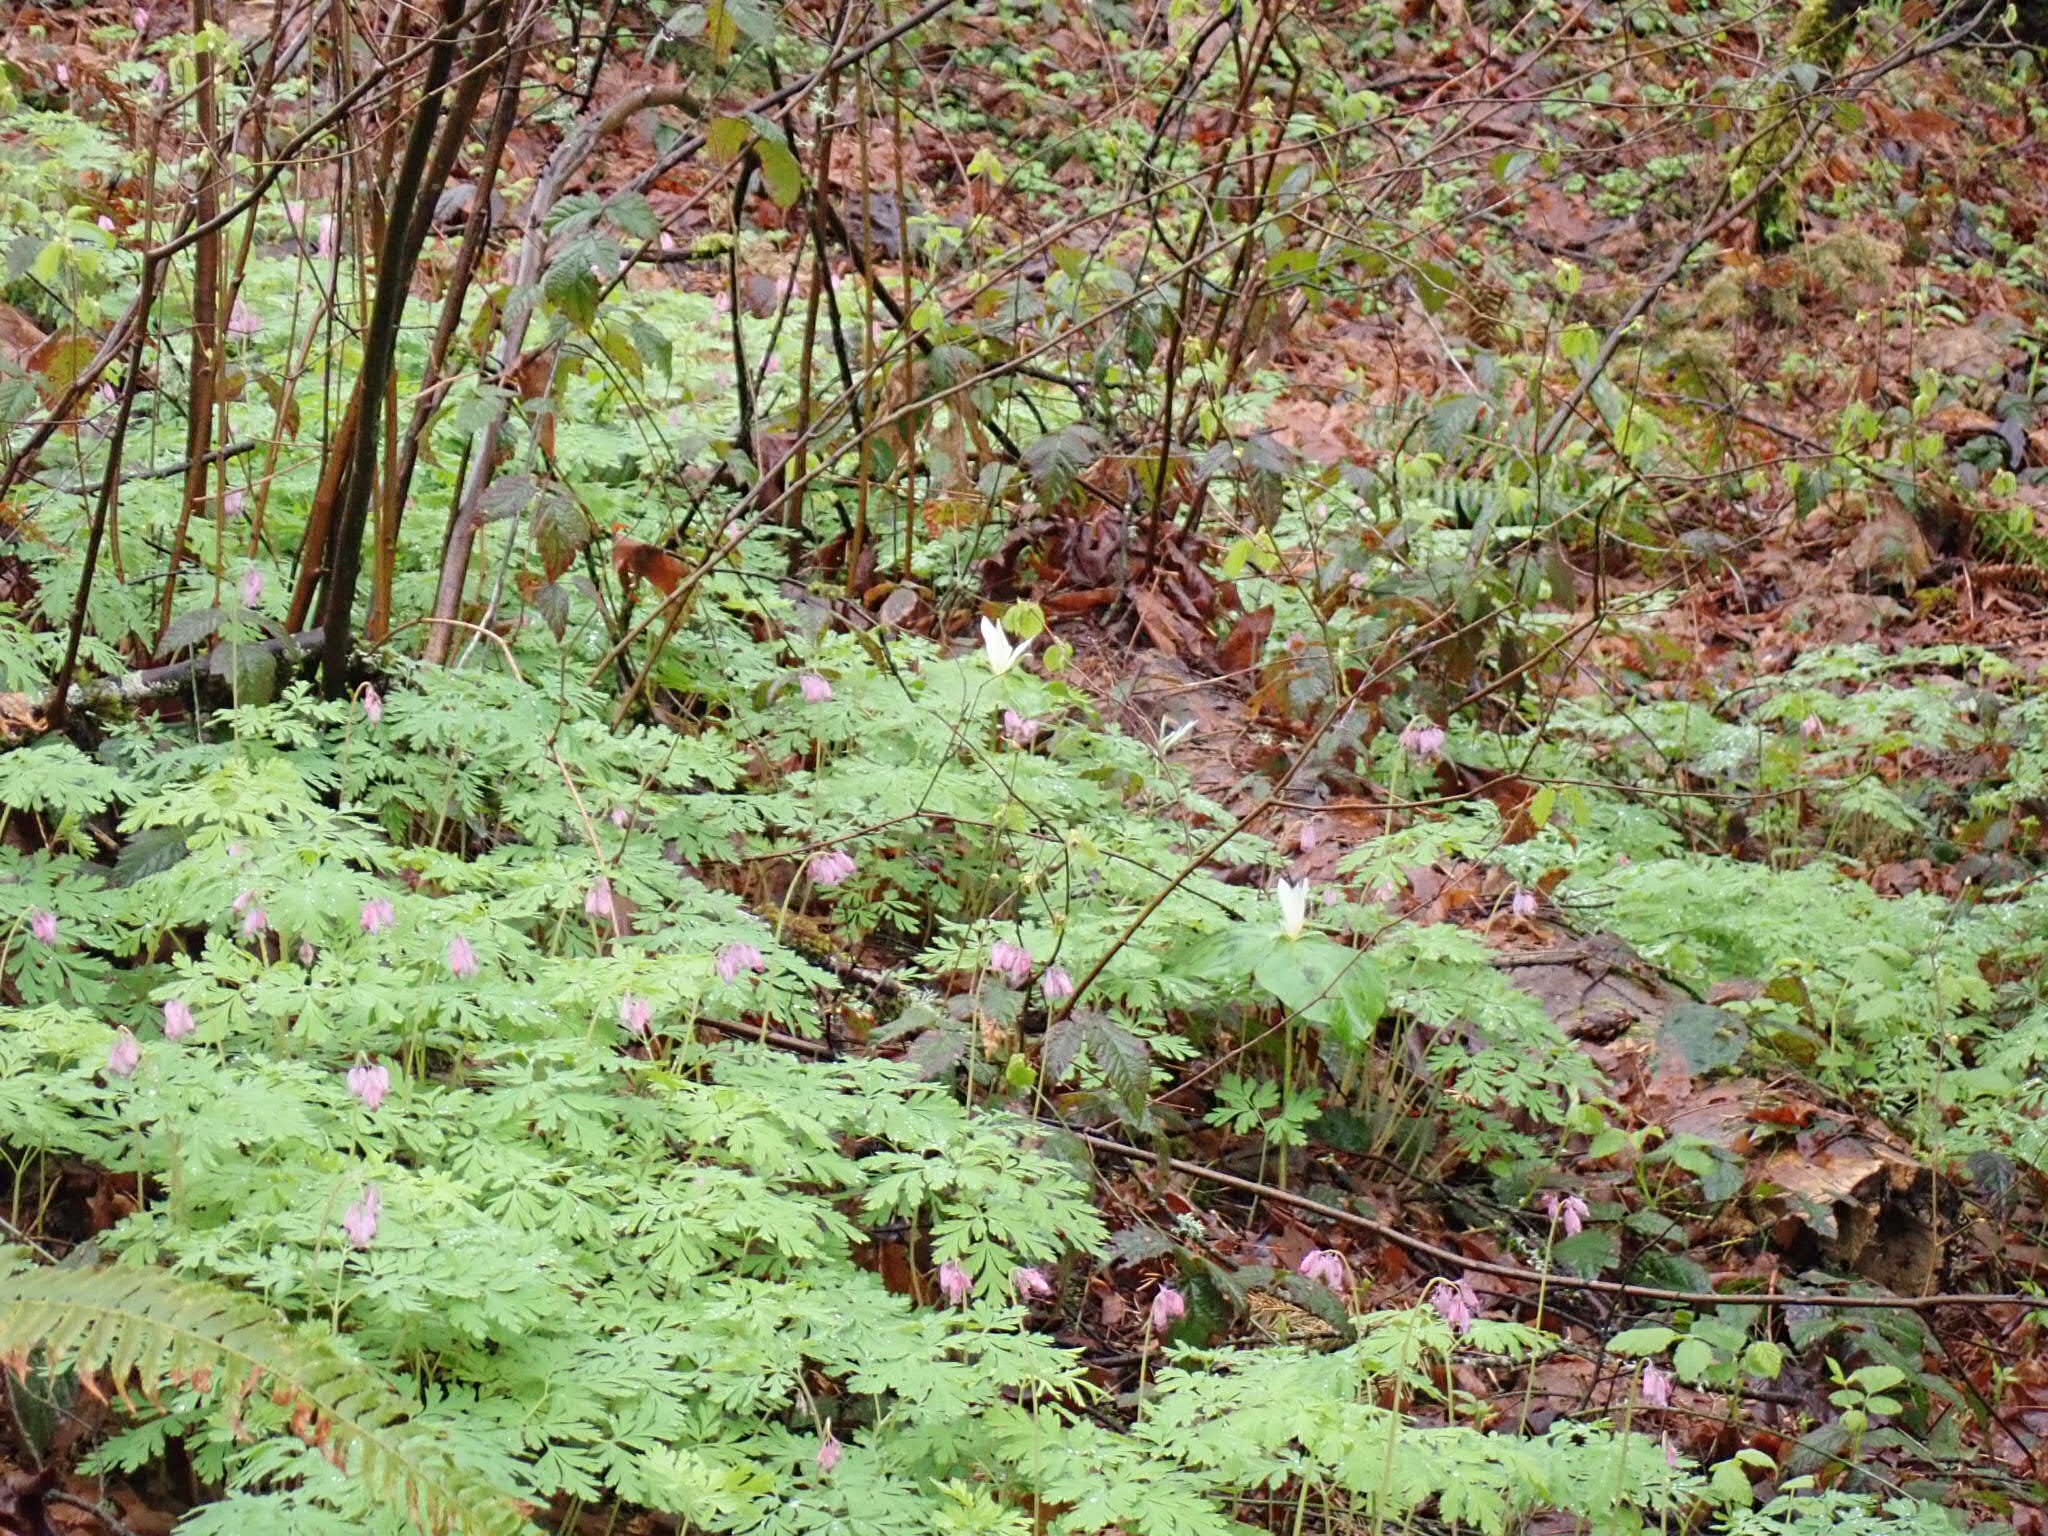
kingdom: Plantae
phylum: Tracheophyta
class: Magnoliopsida
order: Ranunculales
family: Papaveraceae
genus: Dicentra
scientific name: Dicentra formosa
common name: Bleeding-heart
